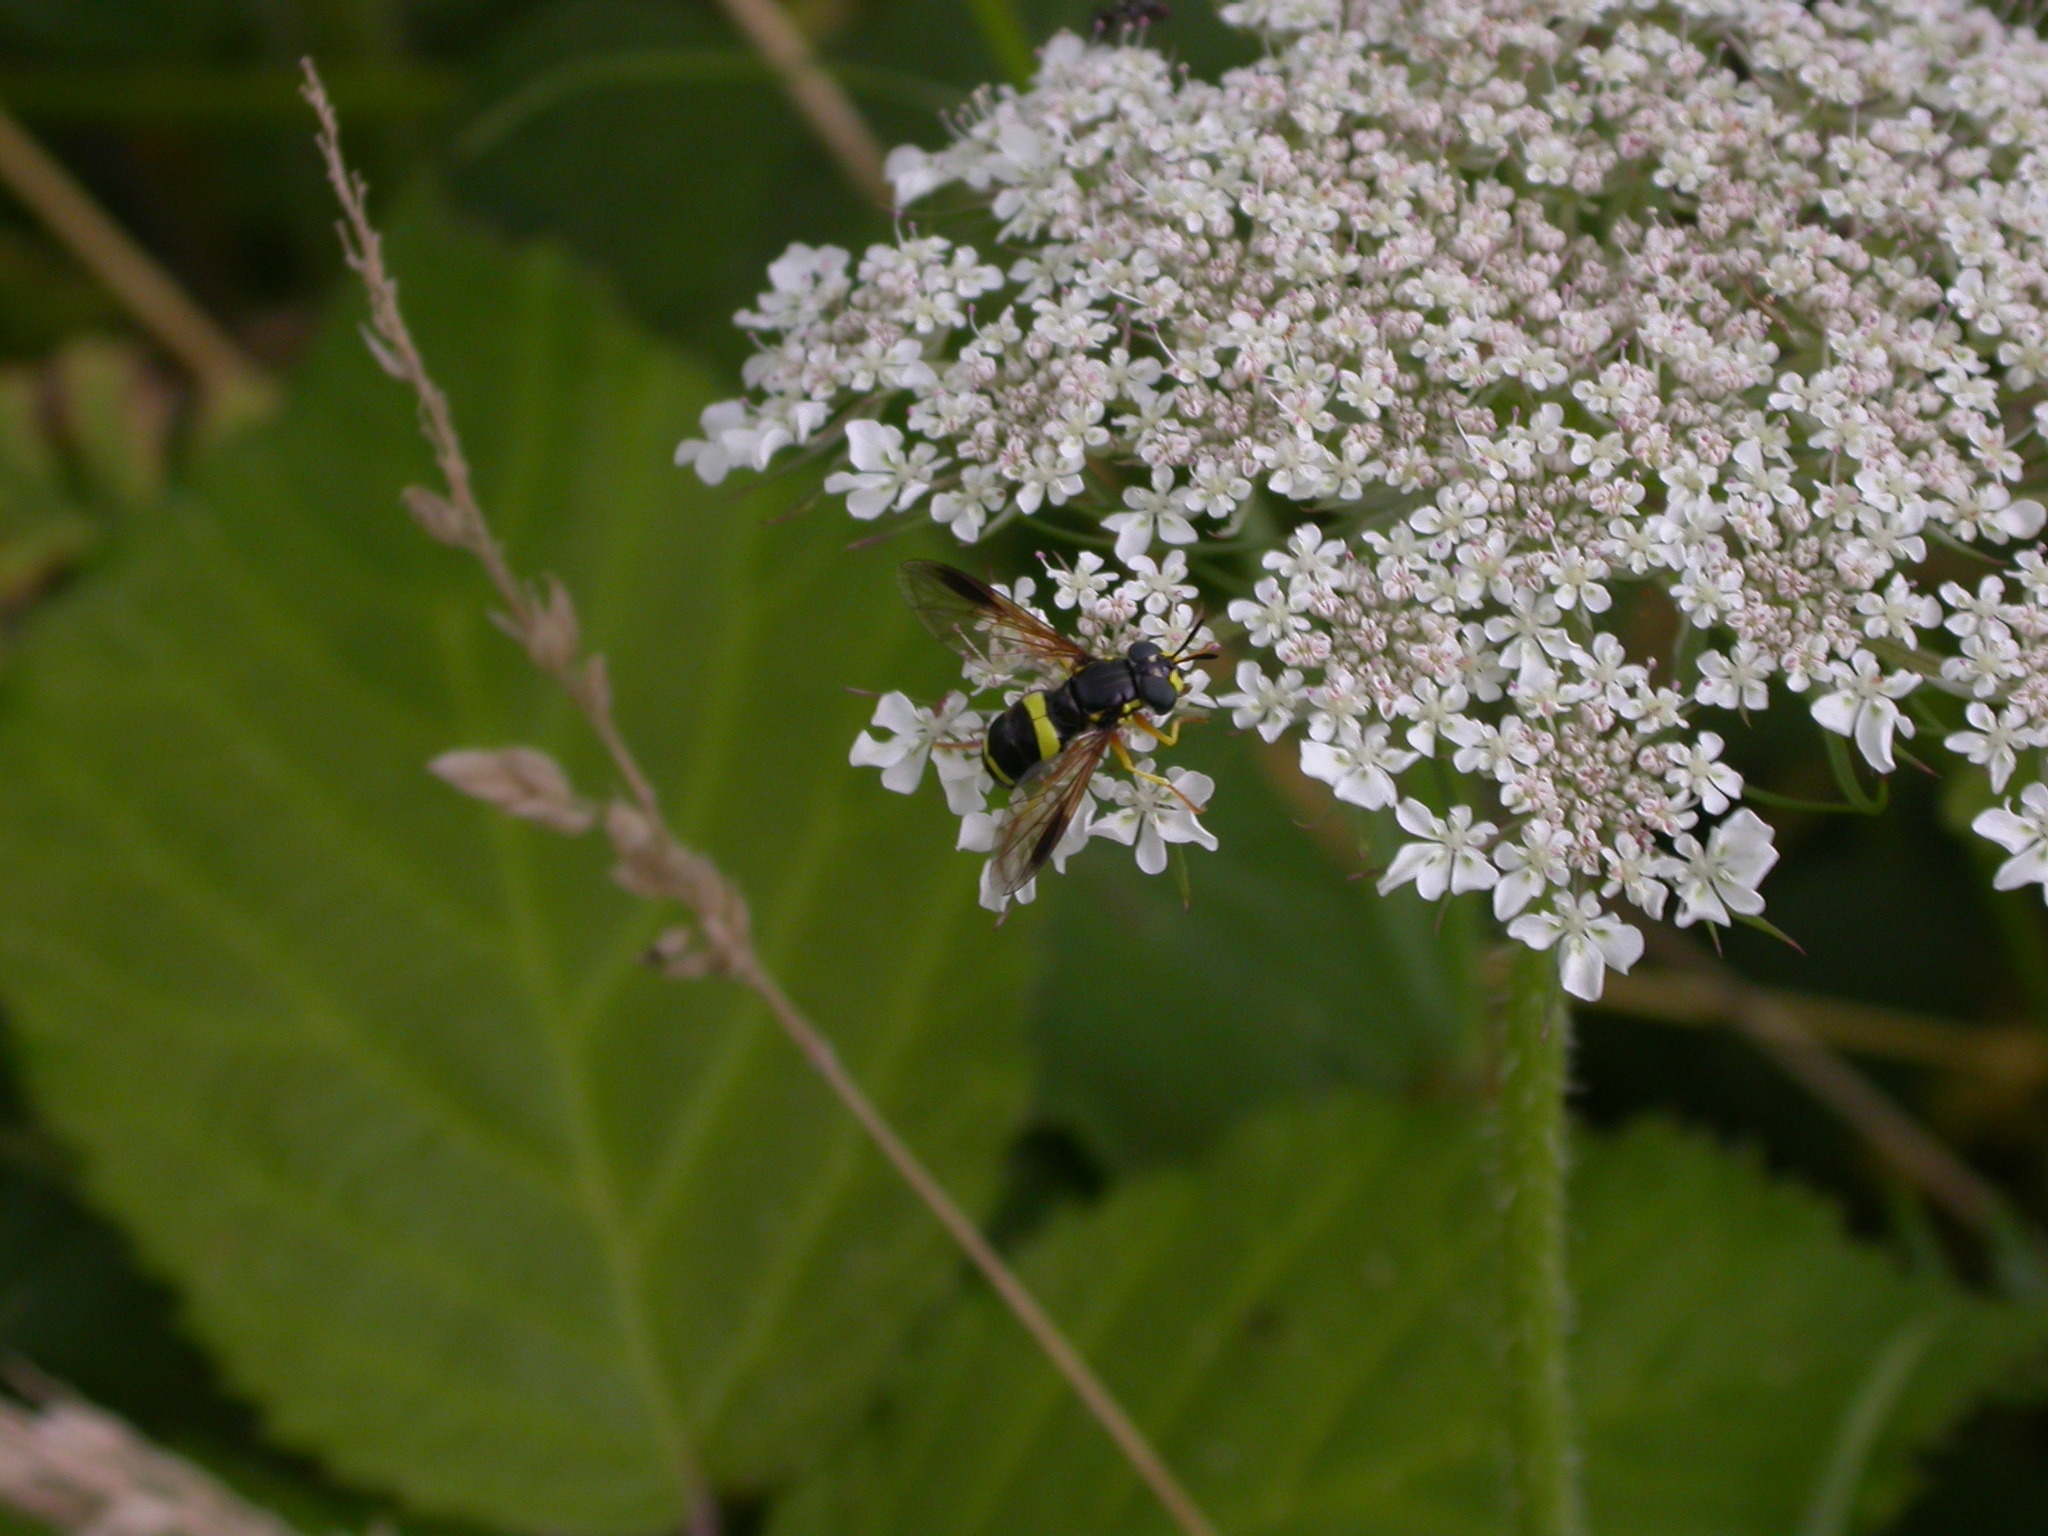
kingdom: Animalia
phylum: Arthropoda
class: Insecta
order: Diptera
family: Syrphidae
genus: Chrysotoxum
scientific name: Chrysotoxum bicincta
